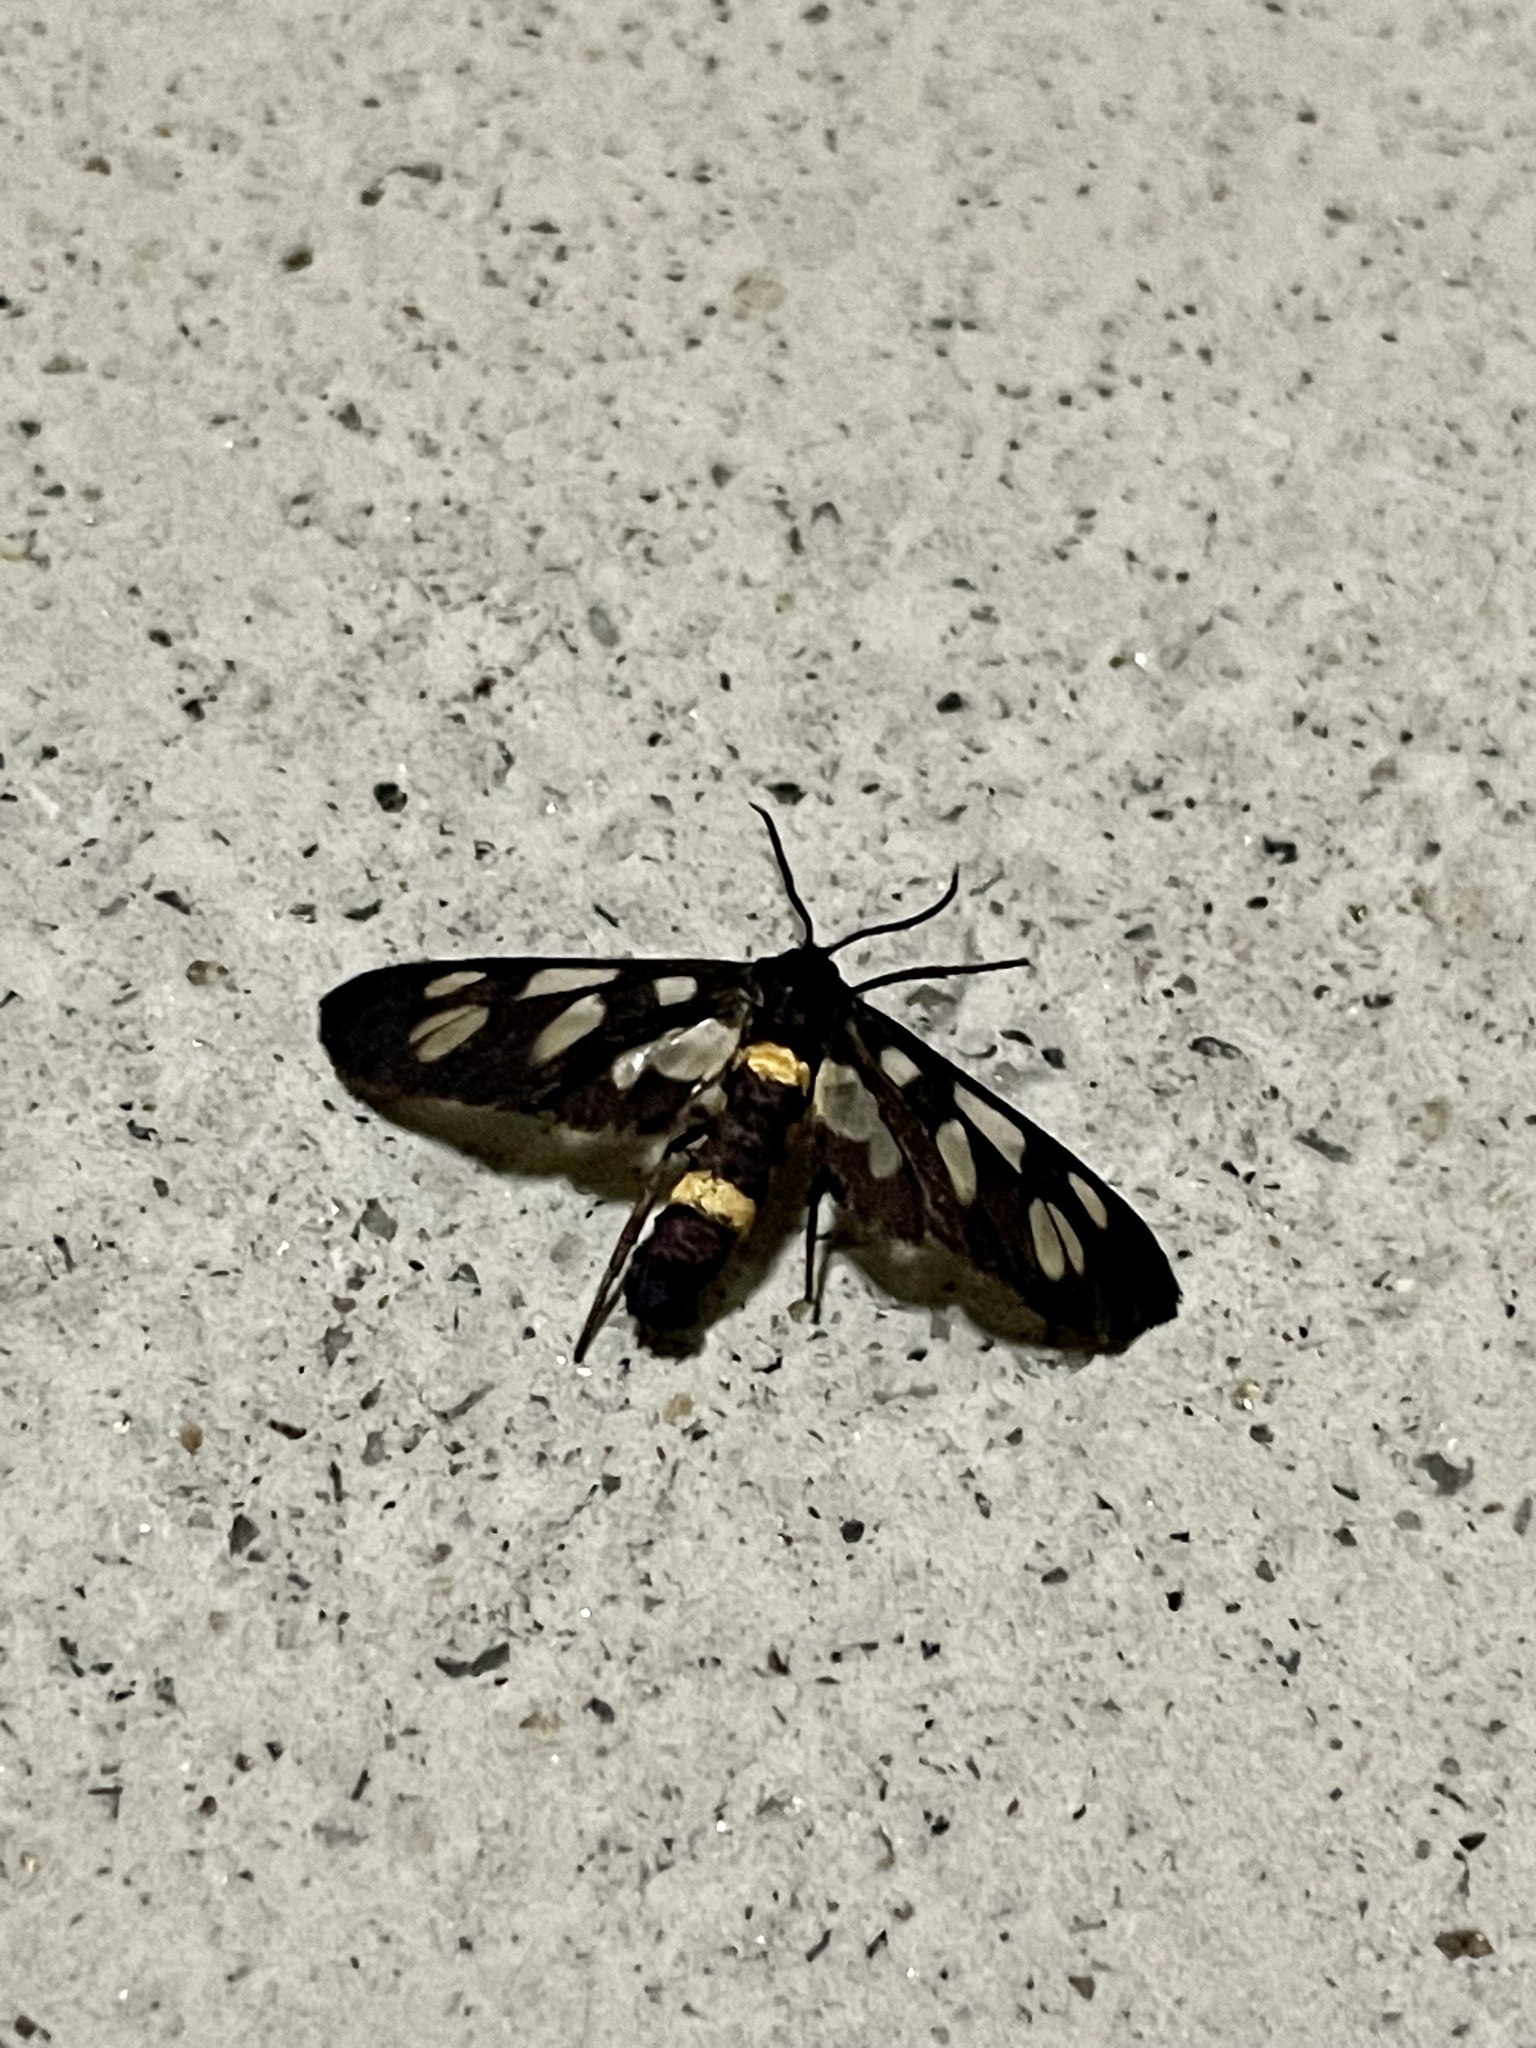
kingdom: Animalia
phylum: Arthropoda
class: Insecta
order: Lepidoptera
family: Erebidae
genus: Amata
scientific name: Amata fortunei
